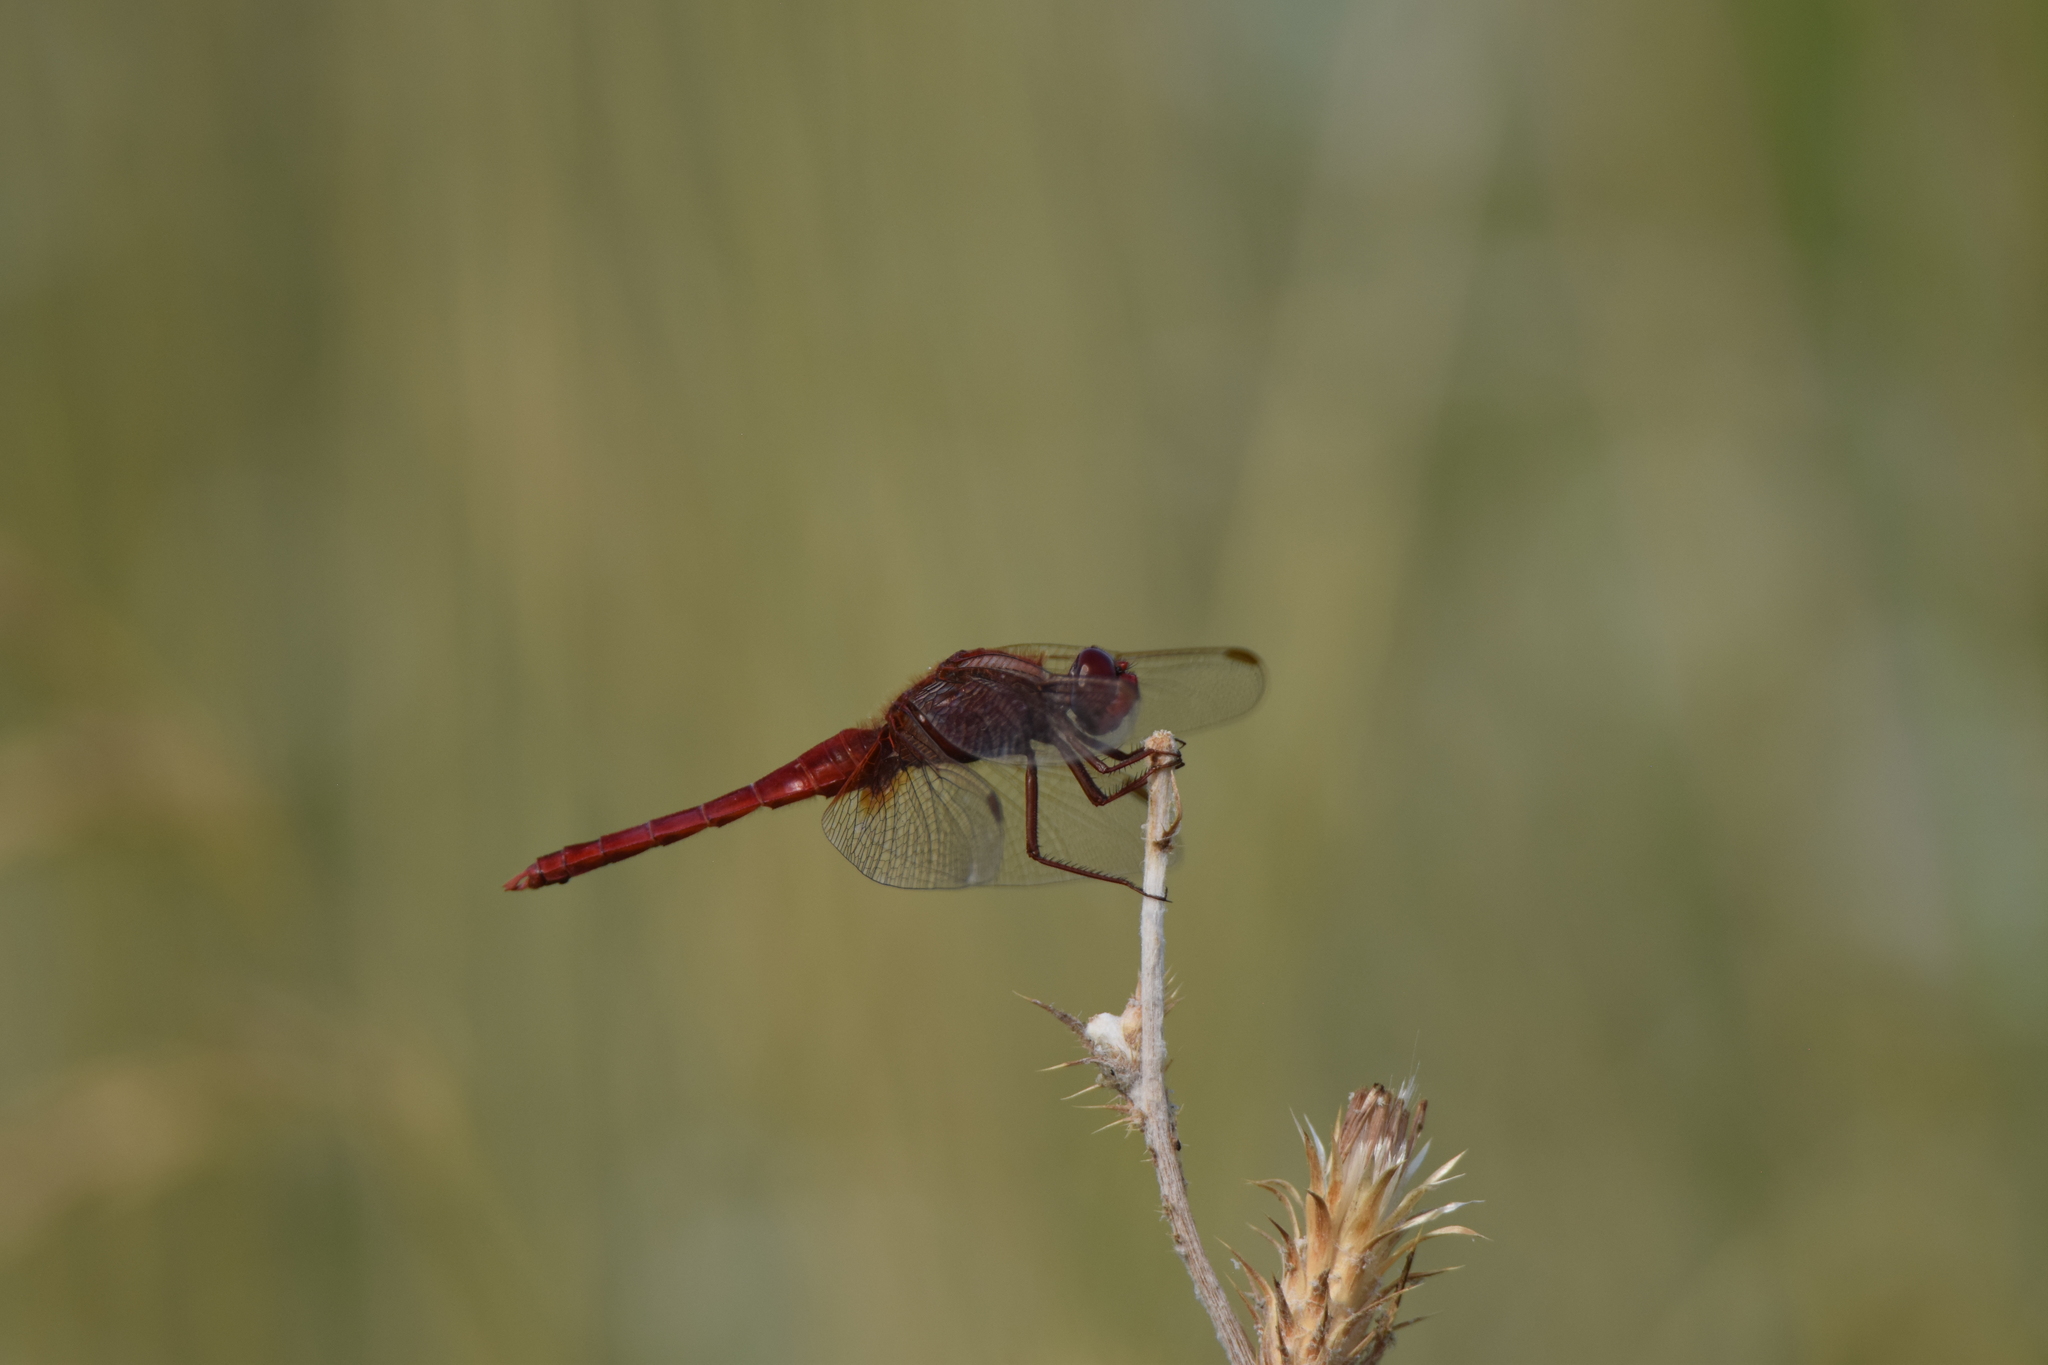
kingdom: Animalia
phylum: Arthropoda
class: Insecta
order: Odonata
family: Libellulidae
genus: Crocothemis
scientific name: Crocothemis erythraea
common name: Scarlet dragonfly
